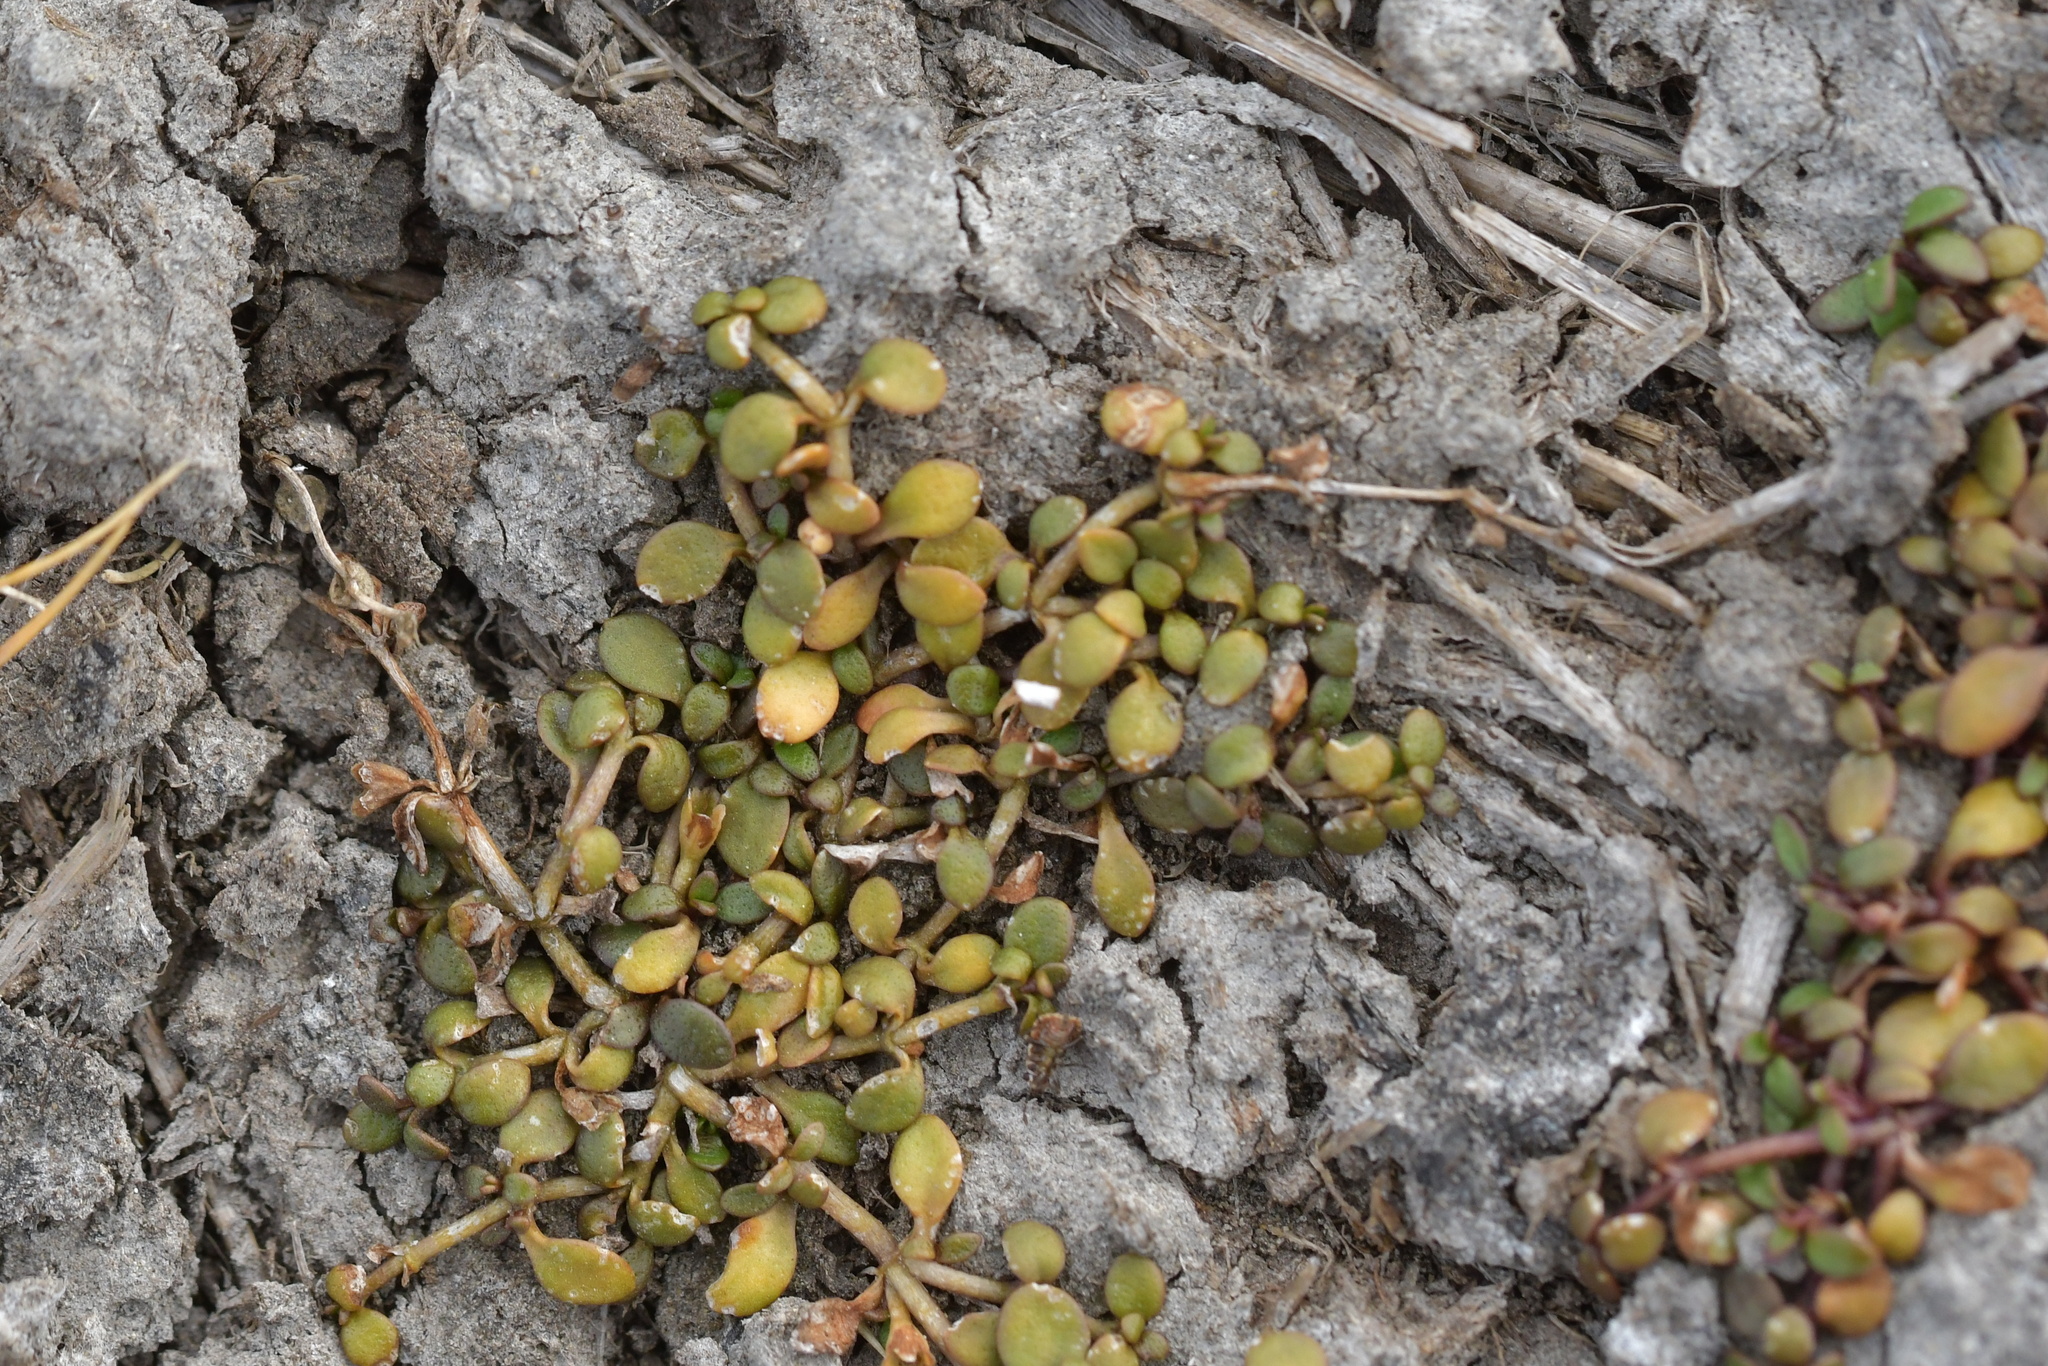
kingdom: Plantae
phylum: Tracheophyta
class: Magnoliopsida
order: Lamiales
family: Phrymaceae
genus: Glossostigma
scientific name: Glossostigma elatinoides
